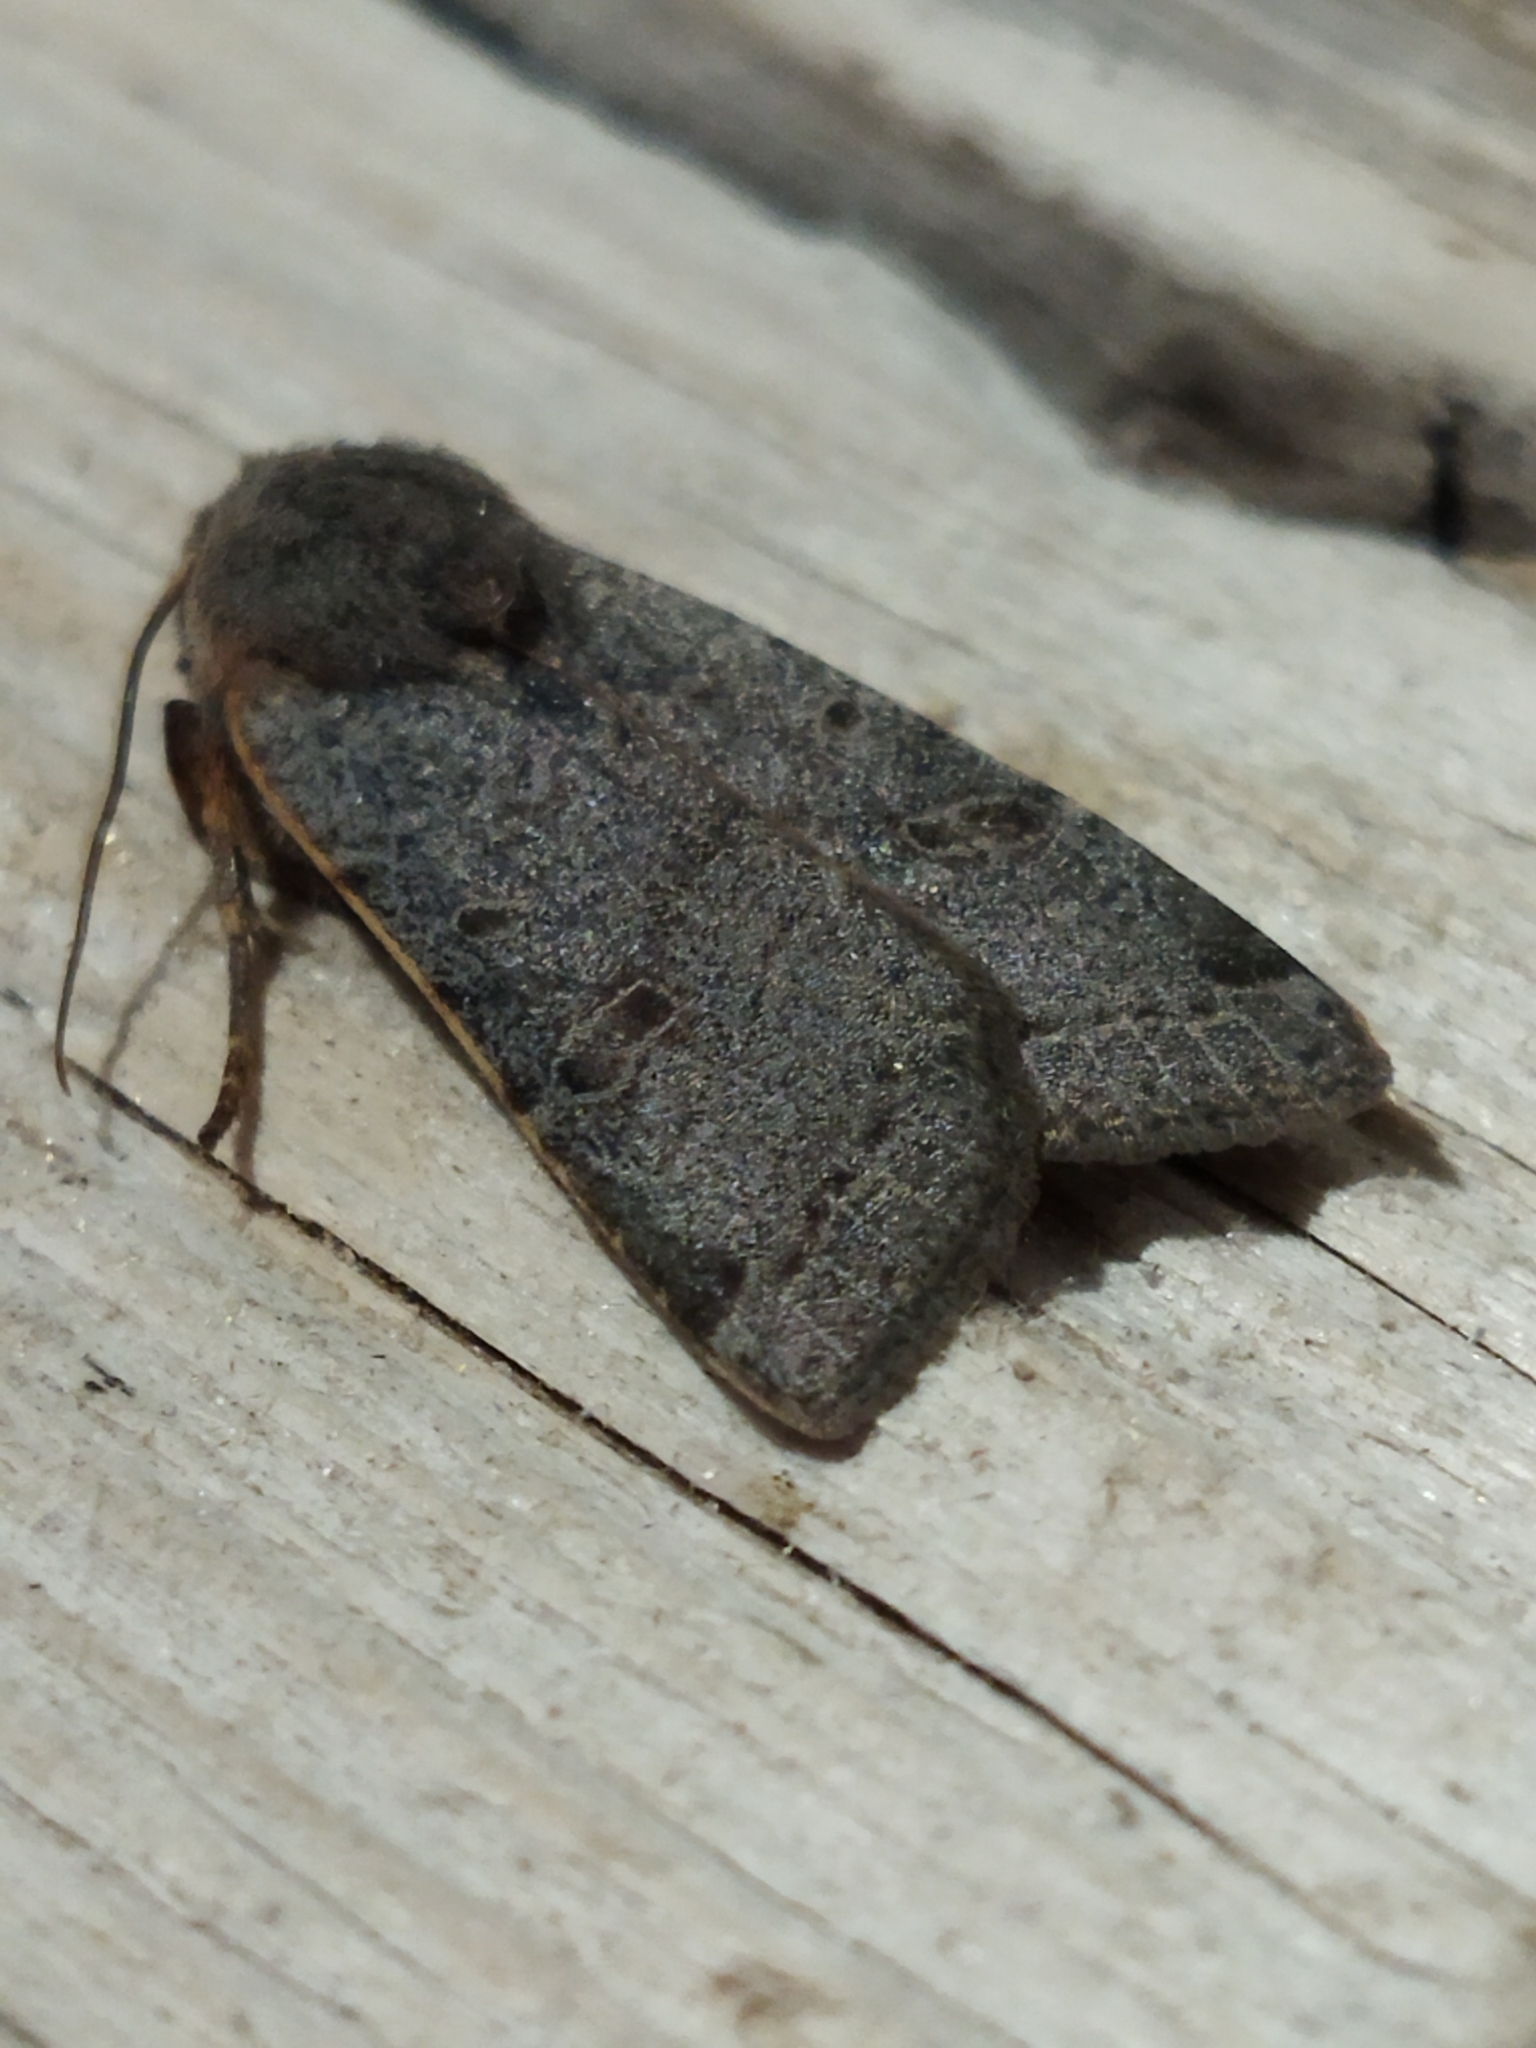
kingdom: Animalia
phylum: Arthropoda
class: Insecta
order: Lepidoptera
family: Noctuidae
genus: Agrochola
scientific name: Agrochola lychnidis
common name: Beaded chestnut
